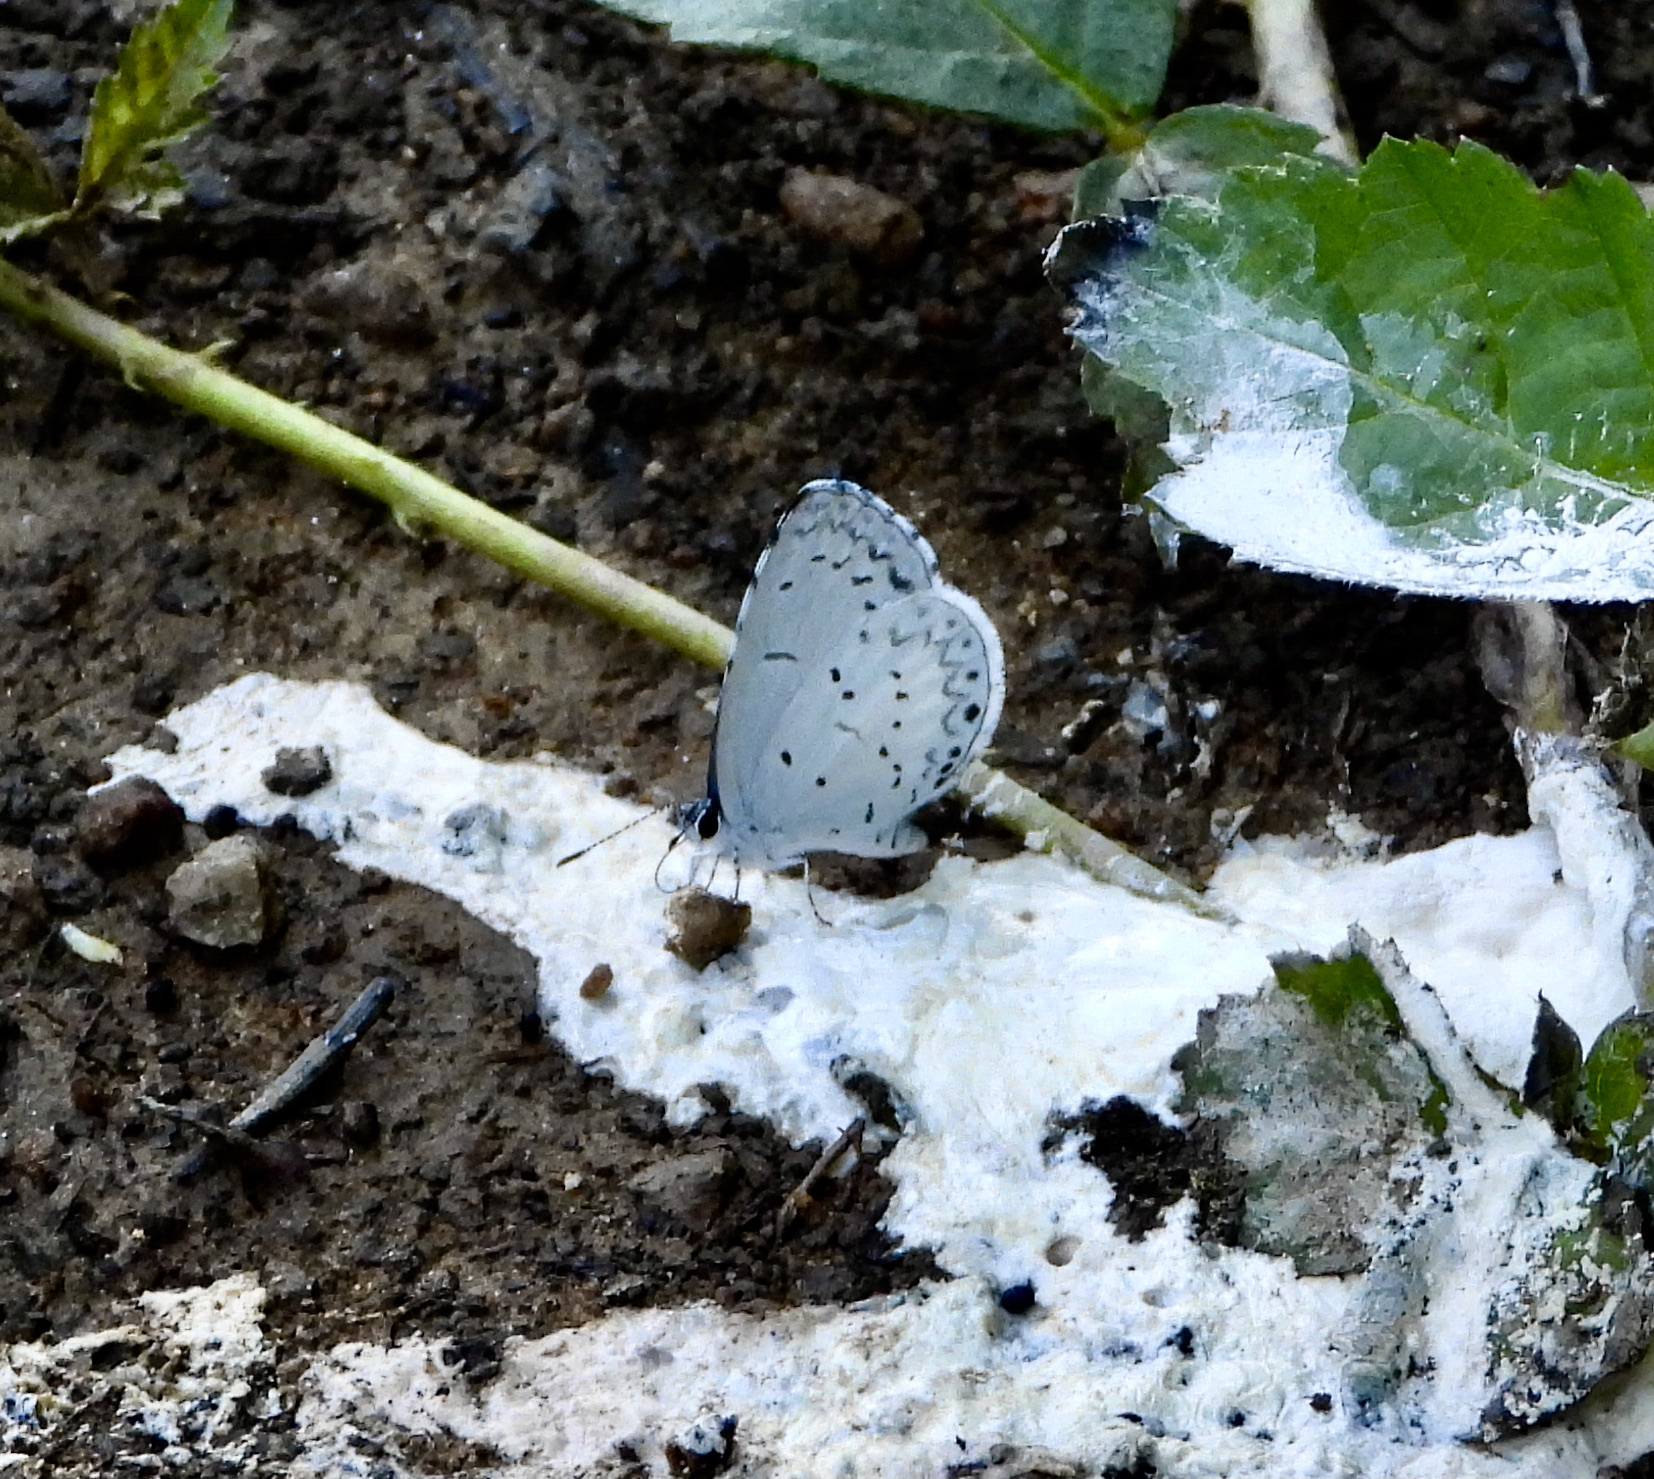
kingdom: Animalia
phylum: Arthropoda
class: Insecta
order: Lepidoptera
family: Lycaenidae
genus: Cyaniris
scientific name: Cyaniris neglecta
